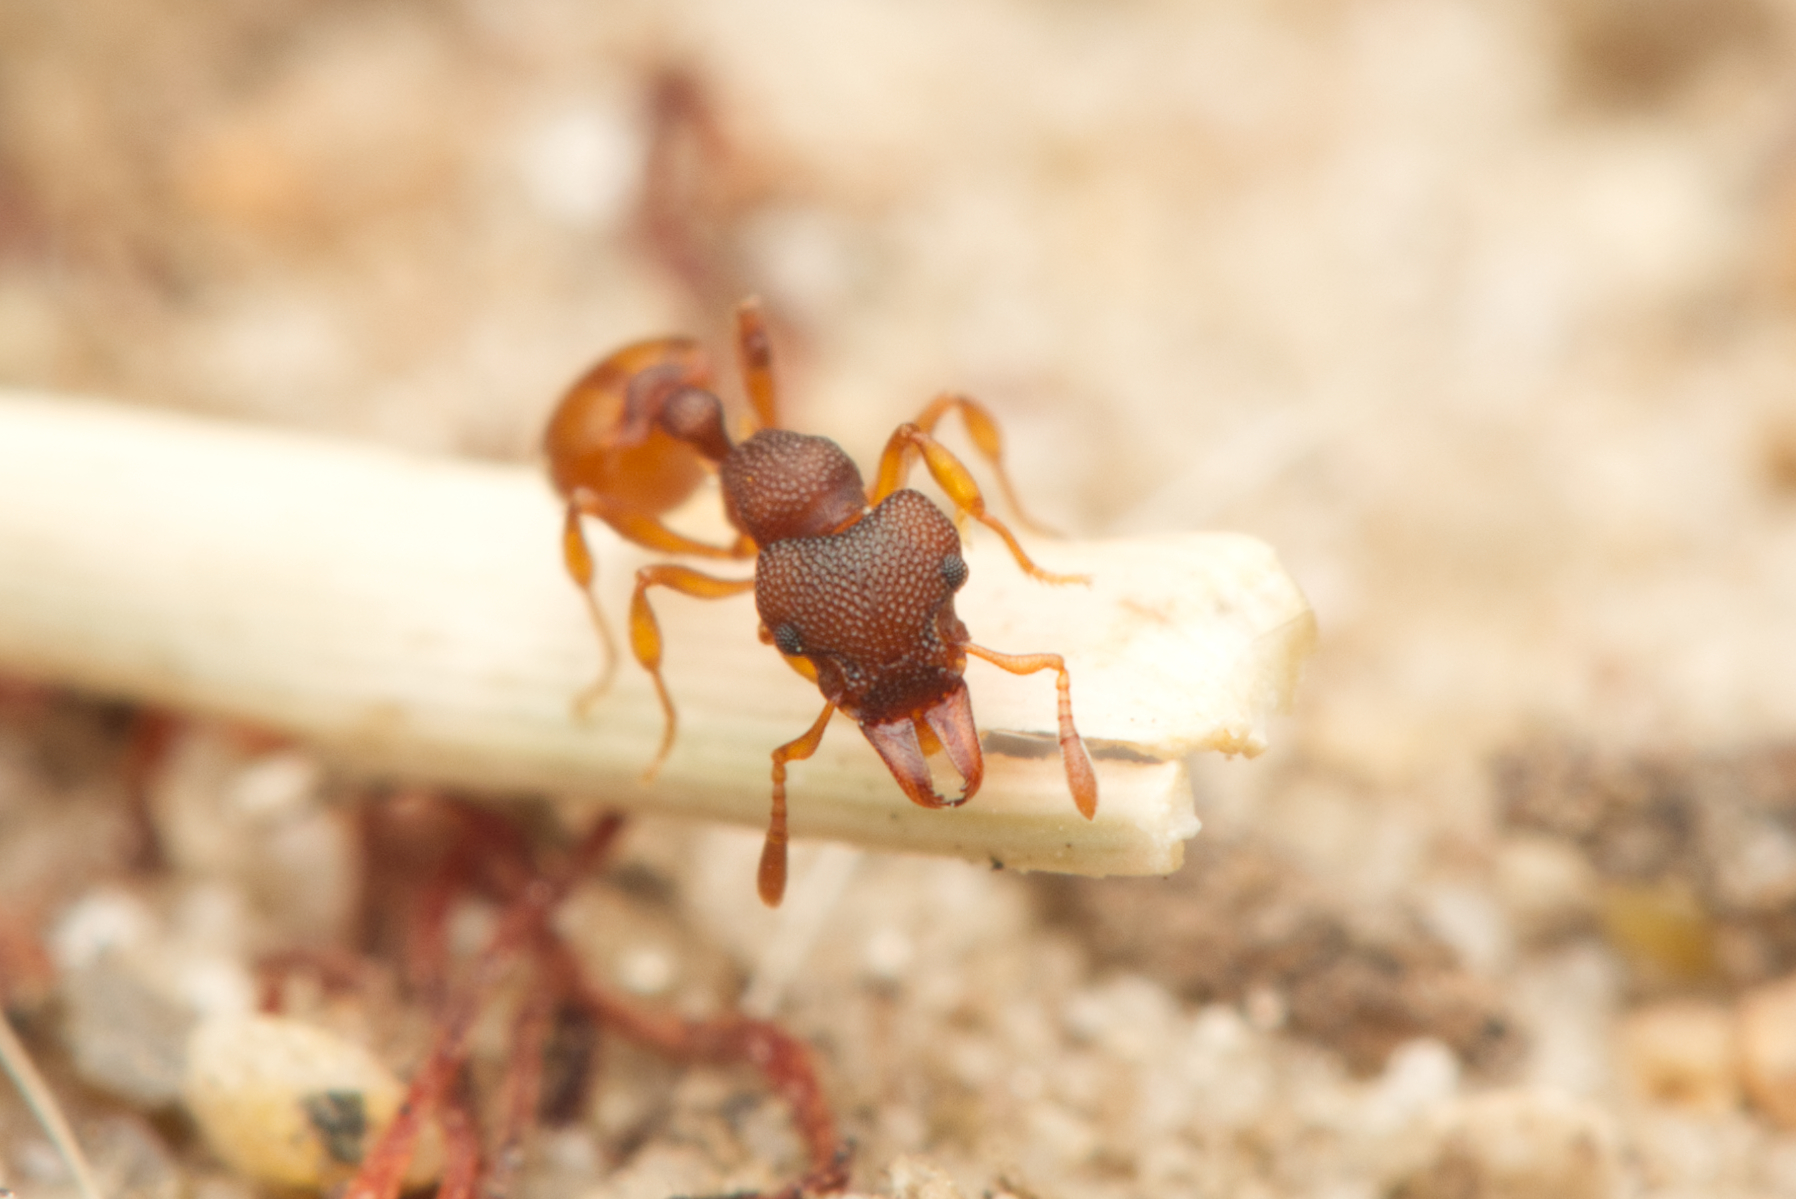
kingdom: Animalia
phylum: Arthropoda
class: Insecta
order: Hymenoptera
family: Formicidae
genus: Mesostruma
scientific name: Mesostruma turneri
